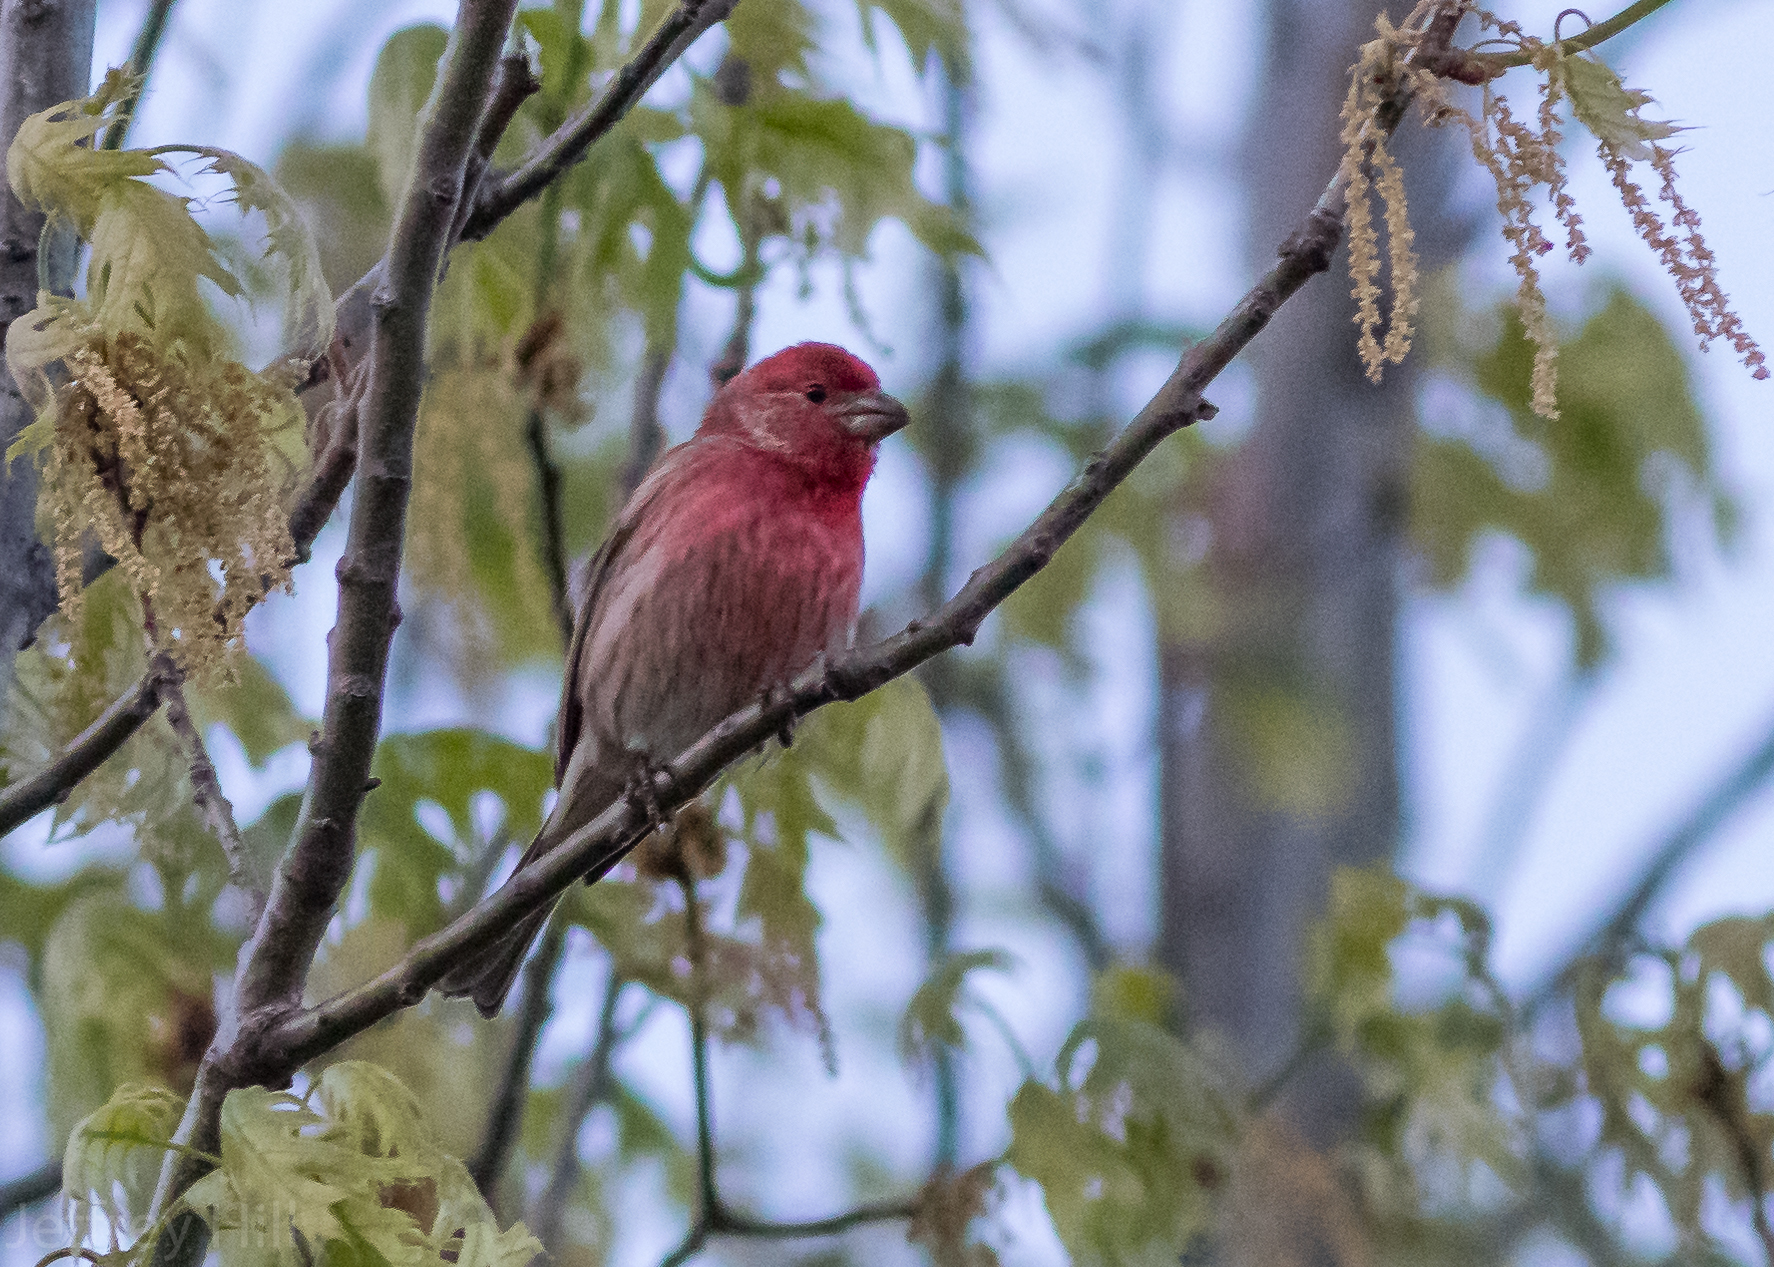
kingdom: Animalia
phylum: Chordata
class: Aves
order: Passeriformes
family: Fringillidae
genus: Haemorhous
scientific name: Haemorhous mexicanus
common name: House finch
